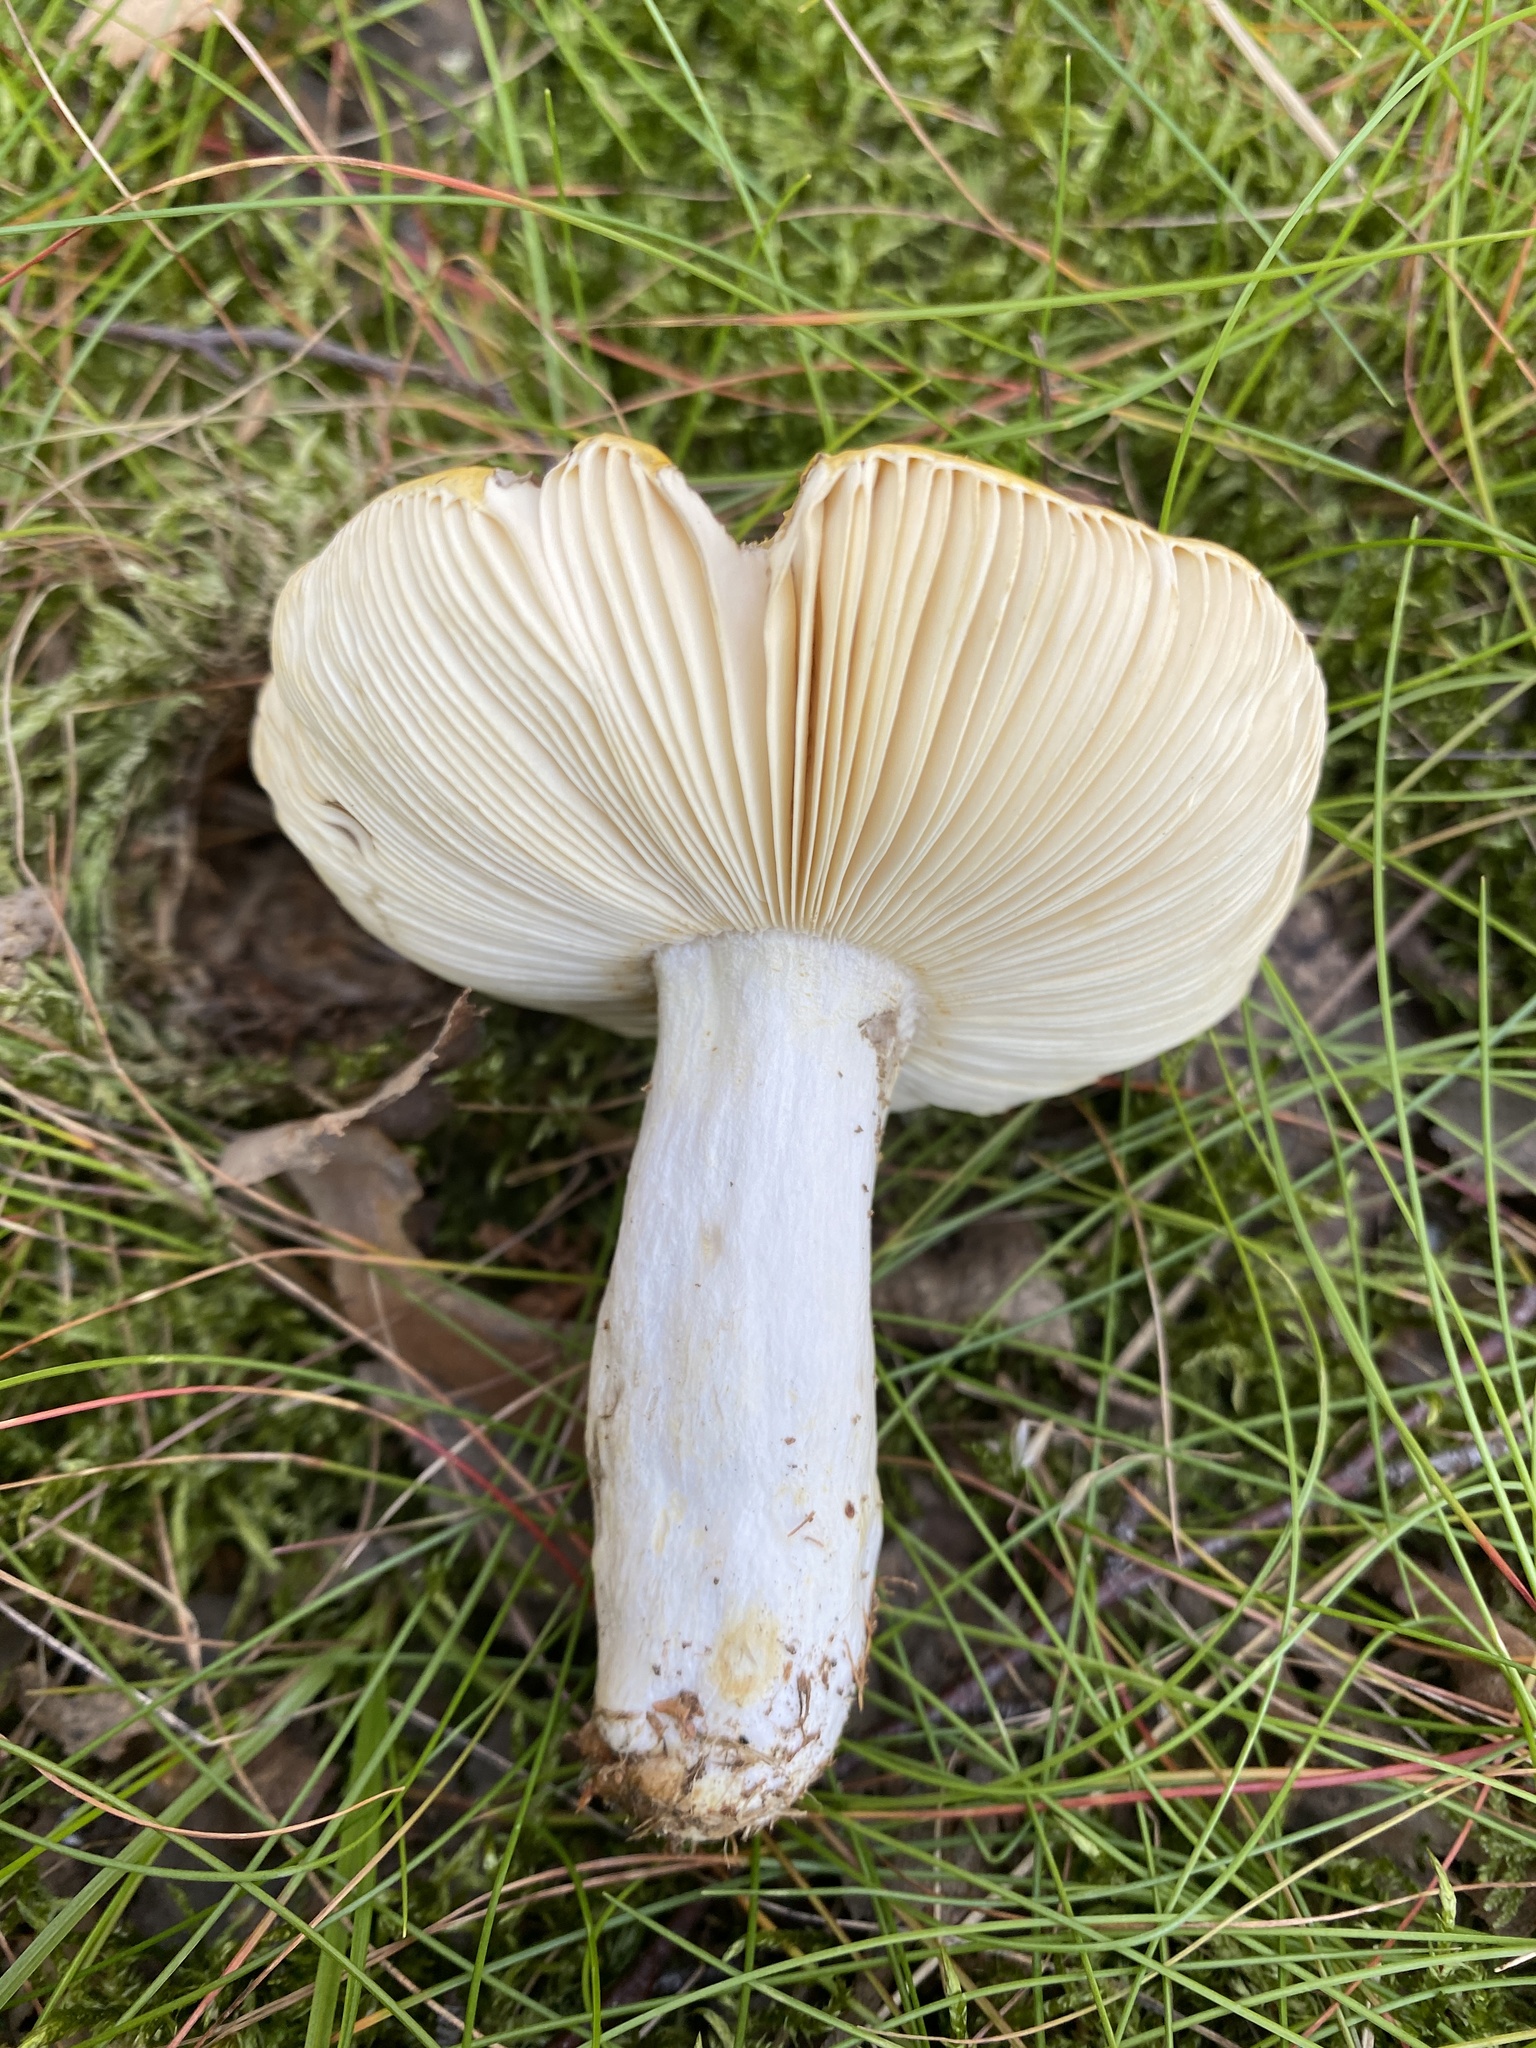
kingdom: Fungi
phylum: Basidiomycota
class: Agaricomycetes
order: Russulales
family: Russulaceae
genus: Russula
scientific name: Russula claroflava
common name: The yellow swamp brittlegill
